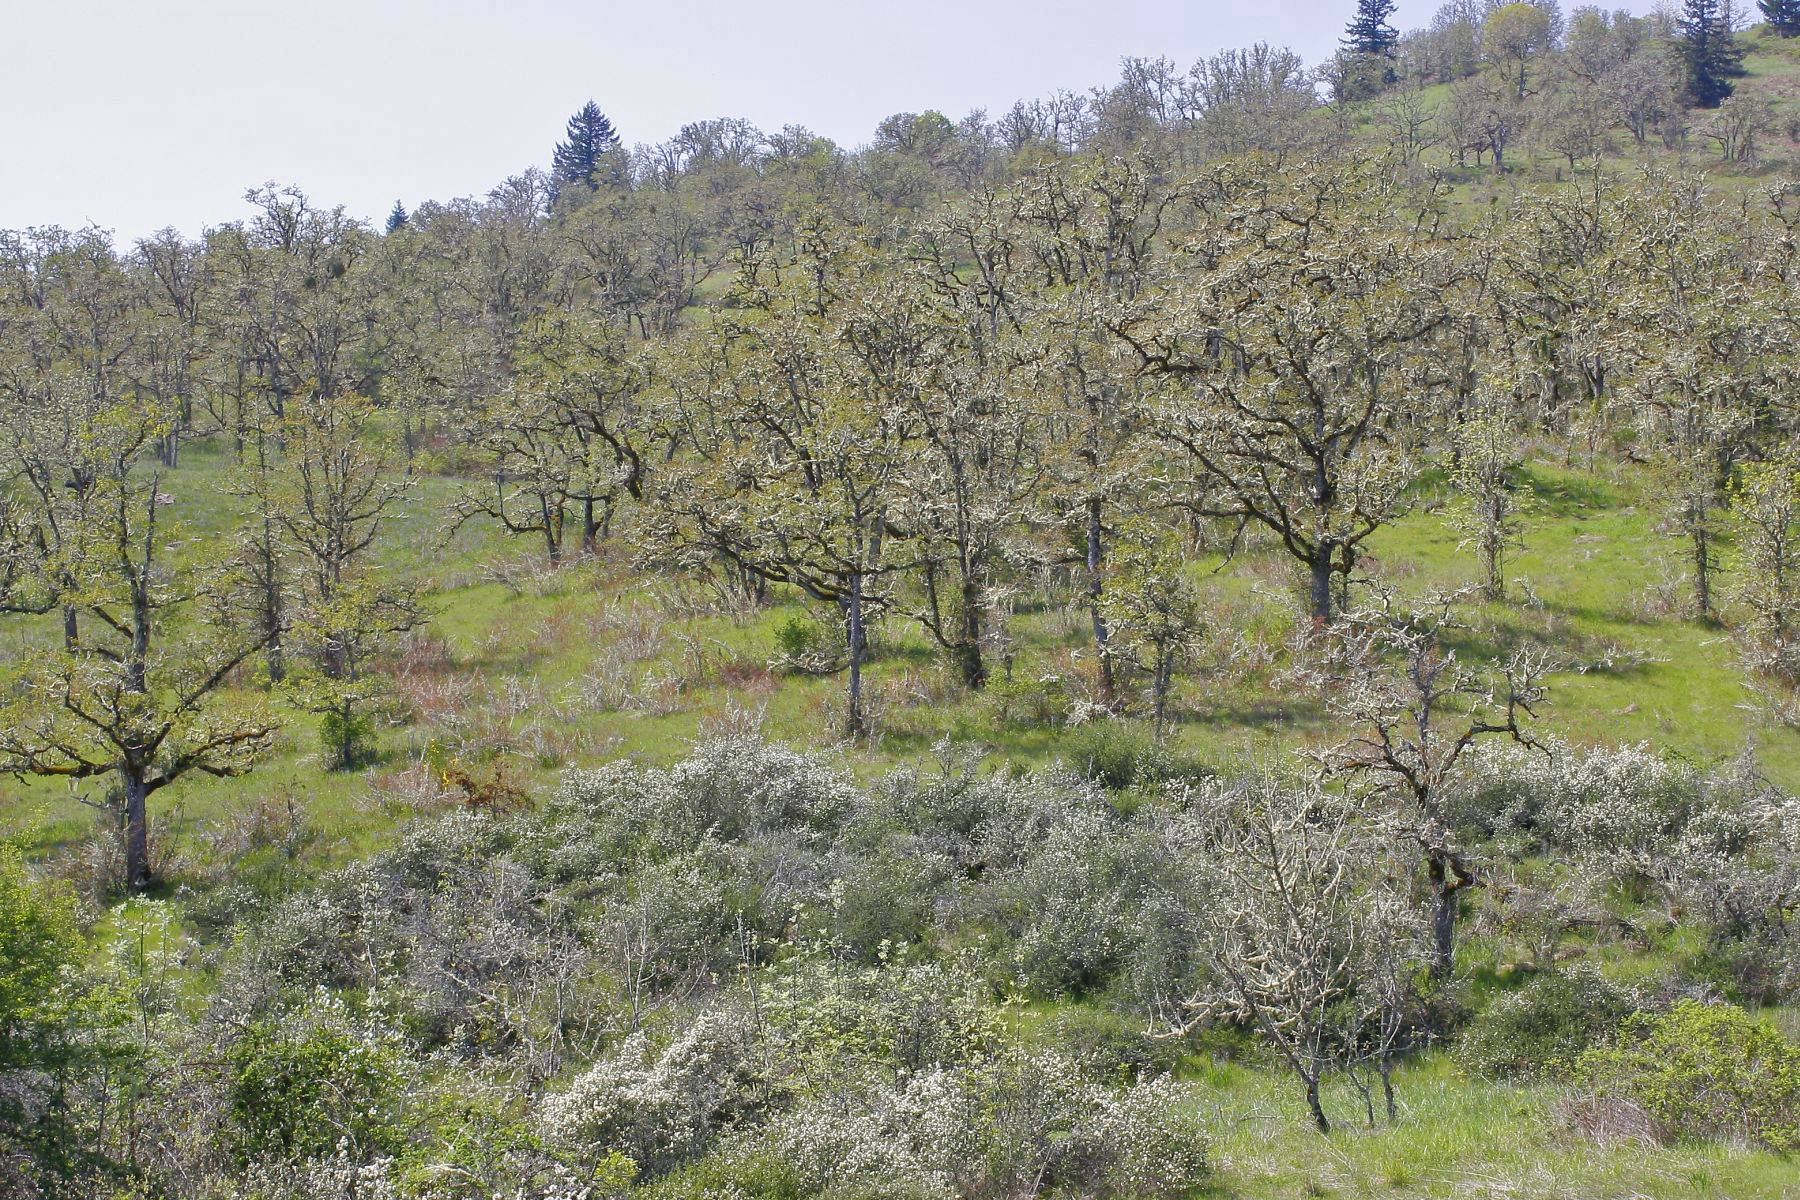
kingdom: Plantae
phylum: Tracheophyta
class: Magnoliopsida
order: Fagales
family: Fagaceae
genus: Quercus
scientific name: Quercus garryana
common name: Garry oak
